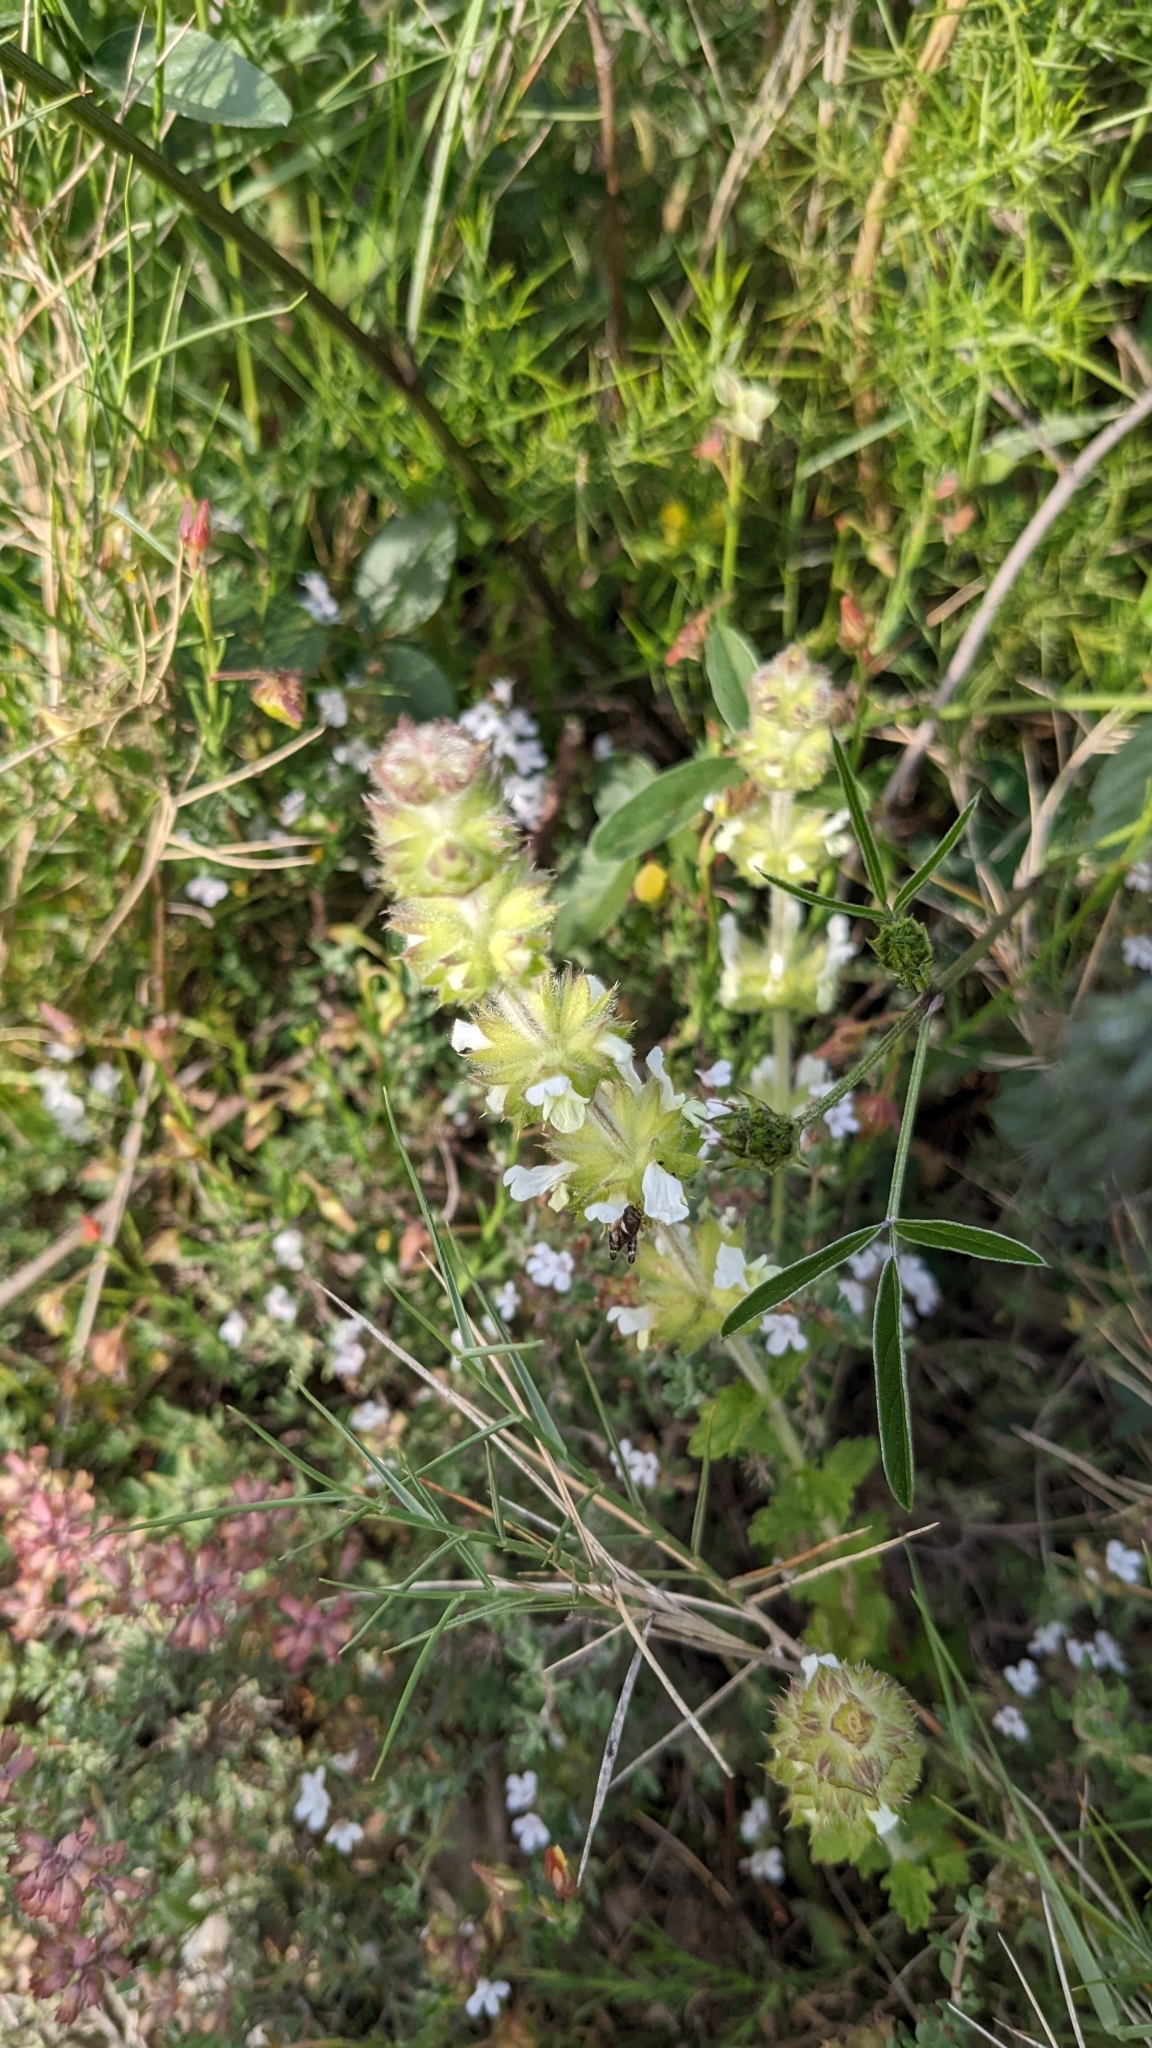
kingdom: Plantae
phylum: Tracheophyta
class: Magnoliopsida
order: Lamiales
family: Lamiaceae
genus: Sideritis
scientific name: Sideritis hirsuta
